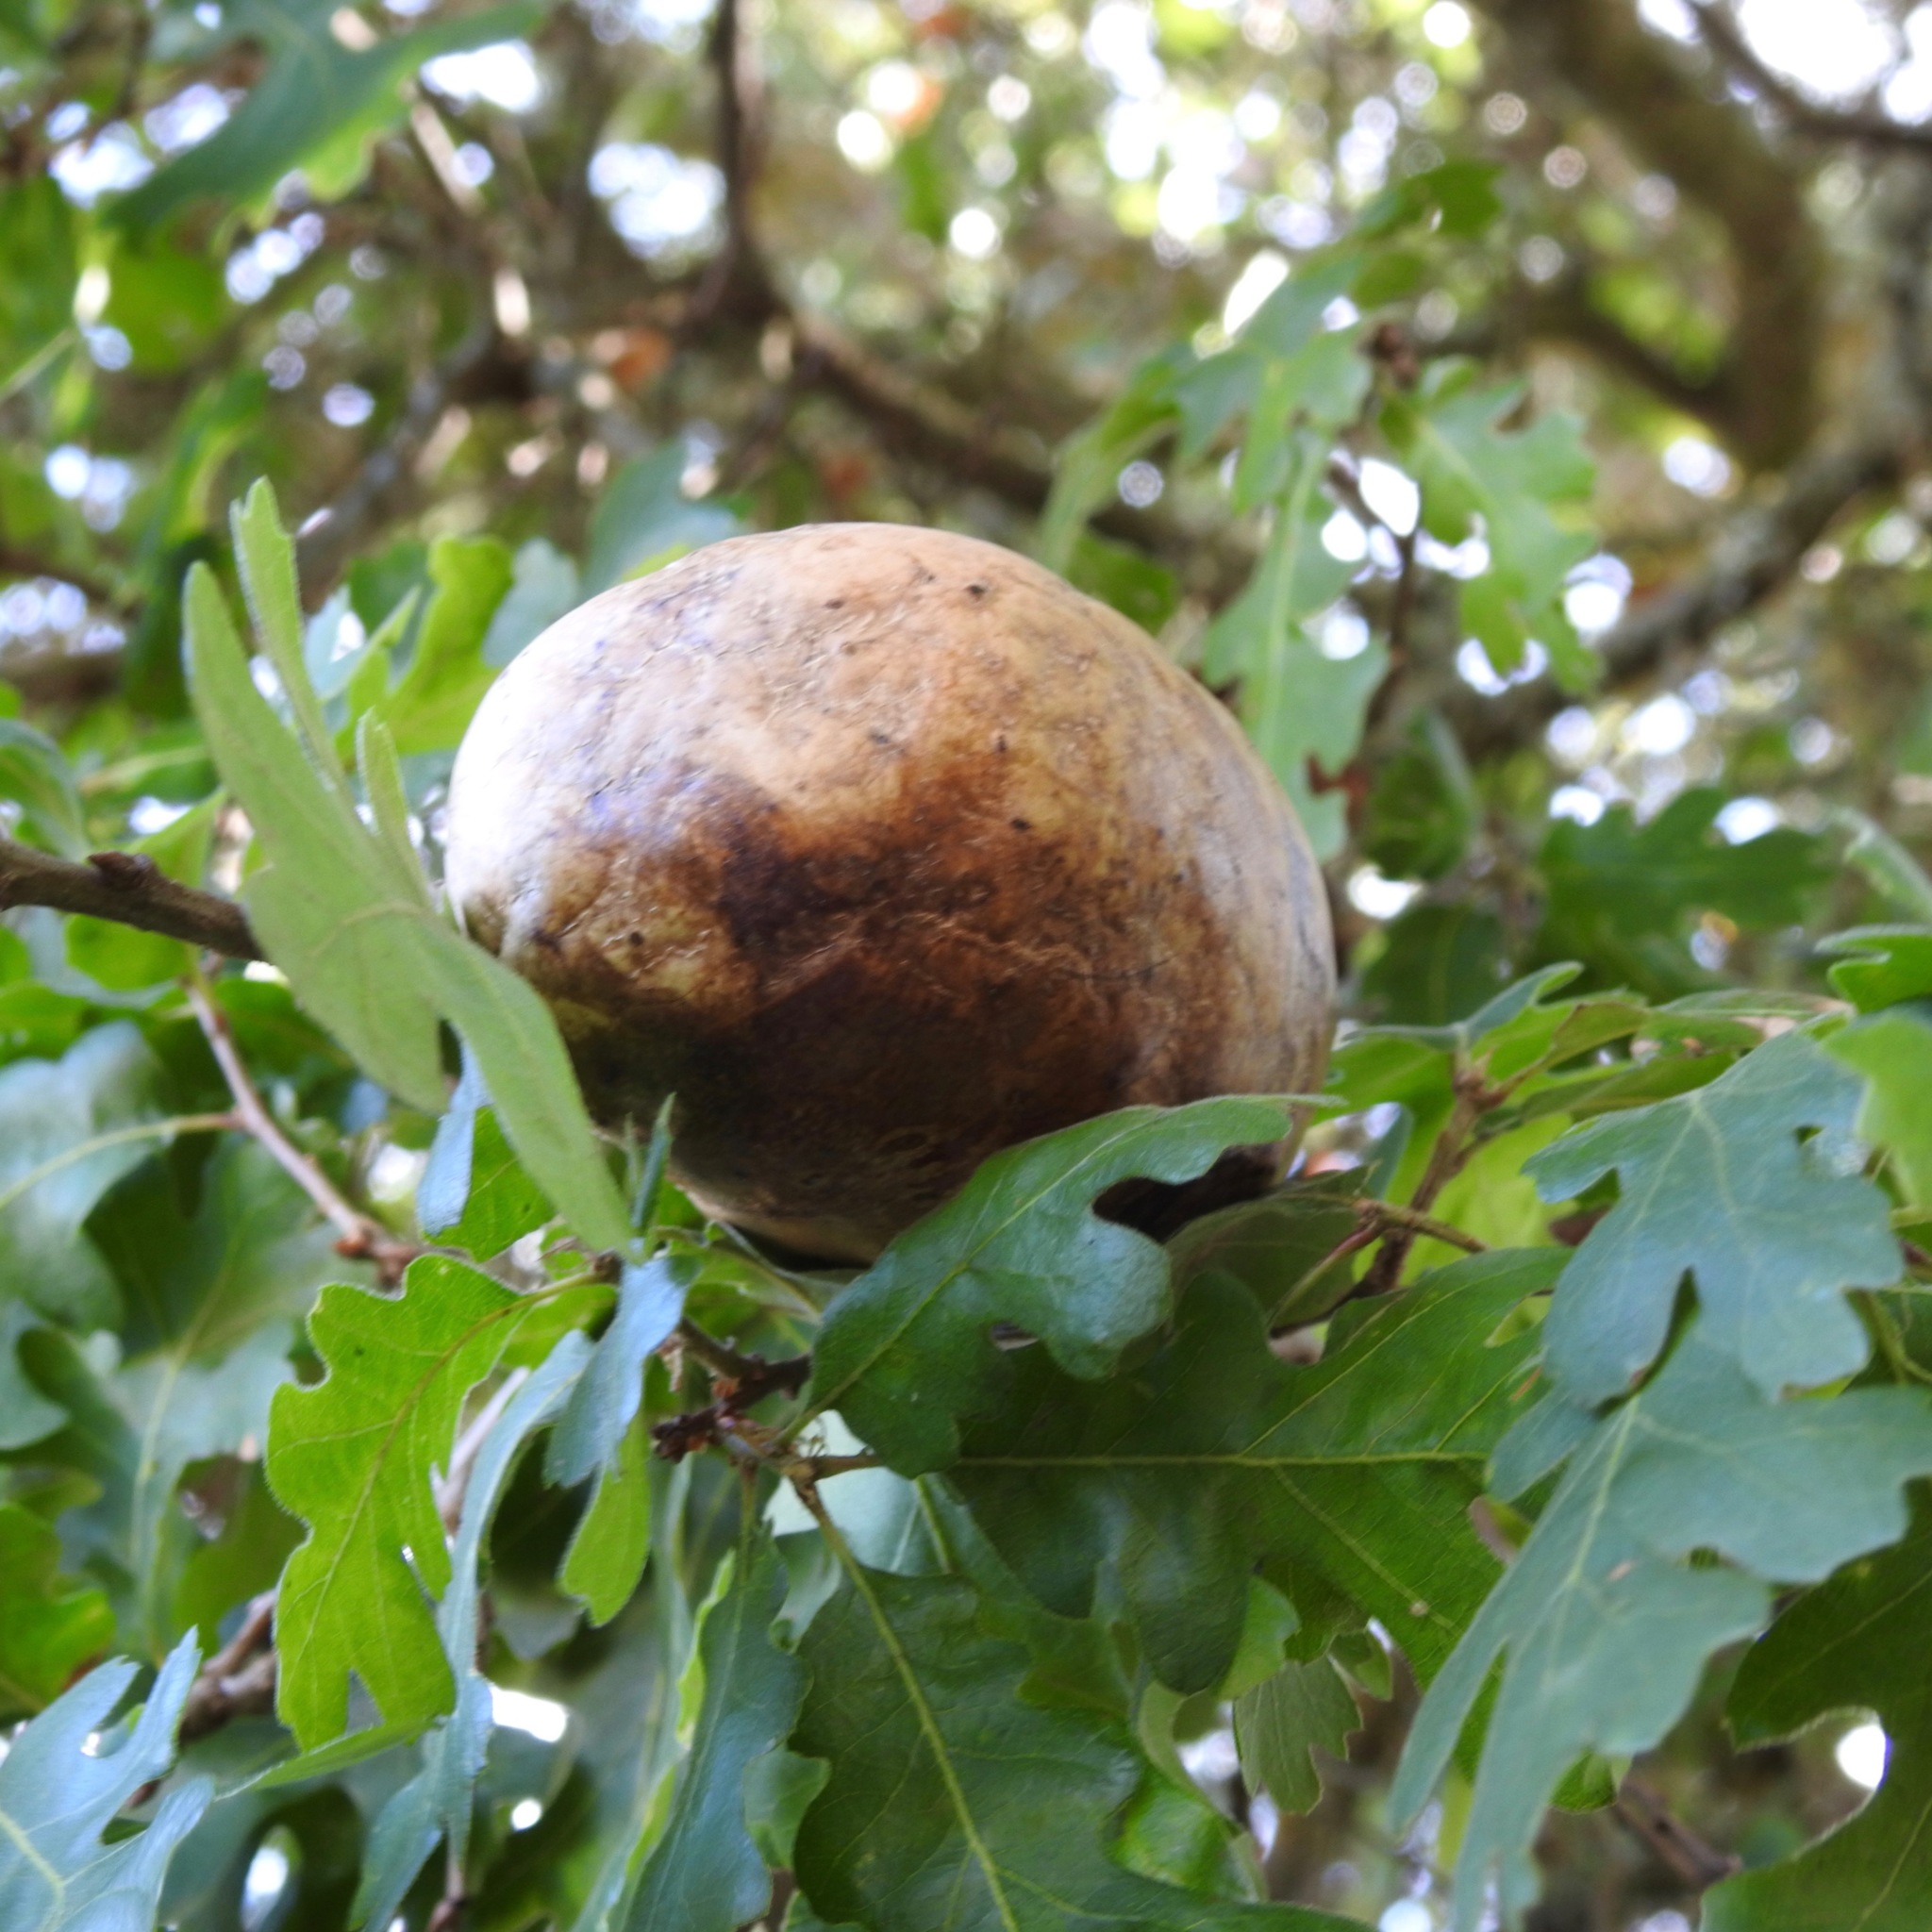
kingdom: Animalia
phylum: Arthropoda
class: Insecta
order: Hymenoptera
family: Cynipidae
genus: Andricus
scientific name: Andricus quercuscalifornicus
